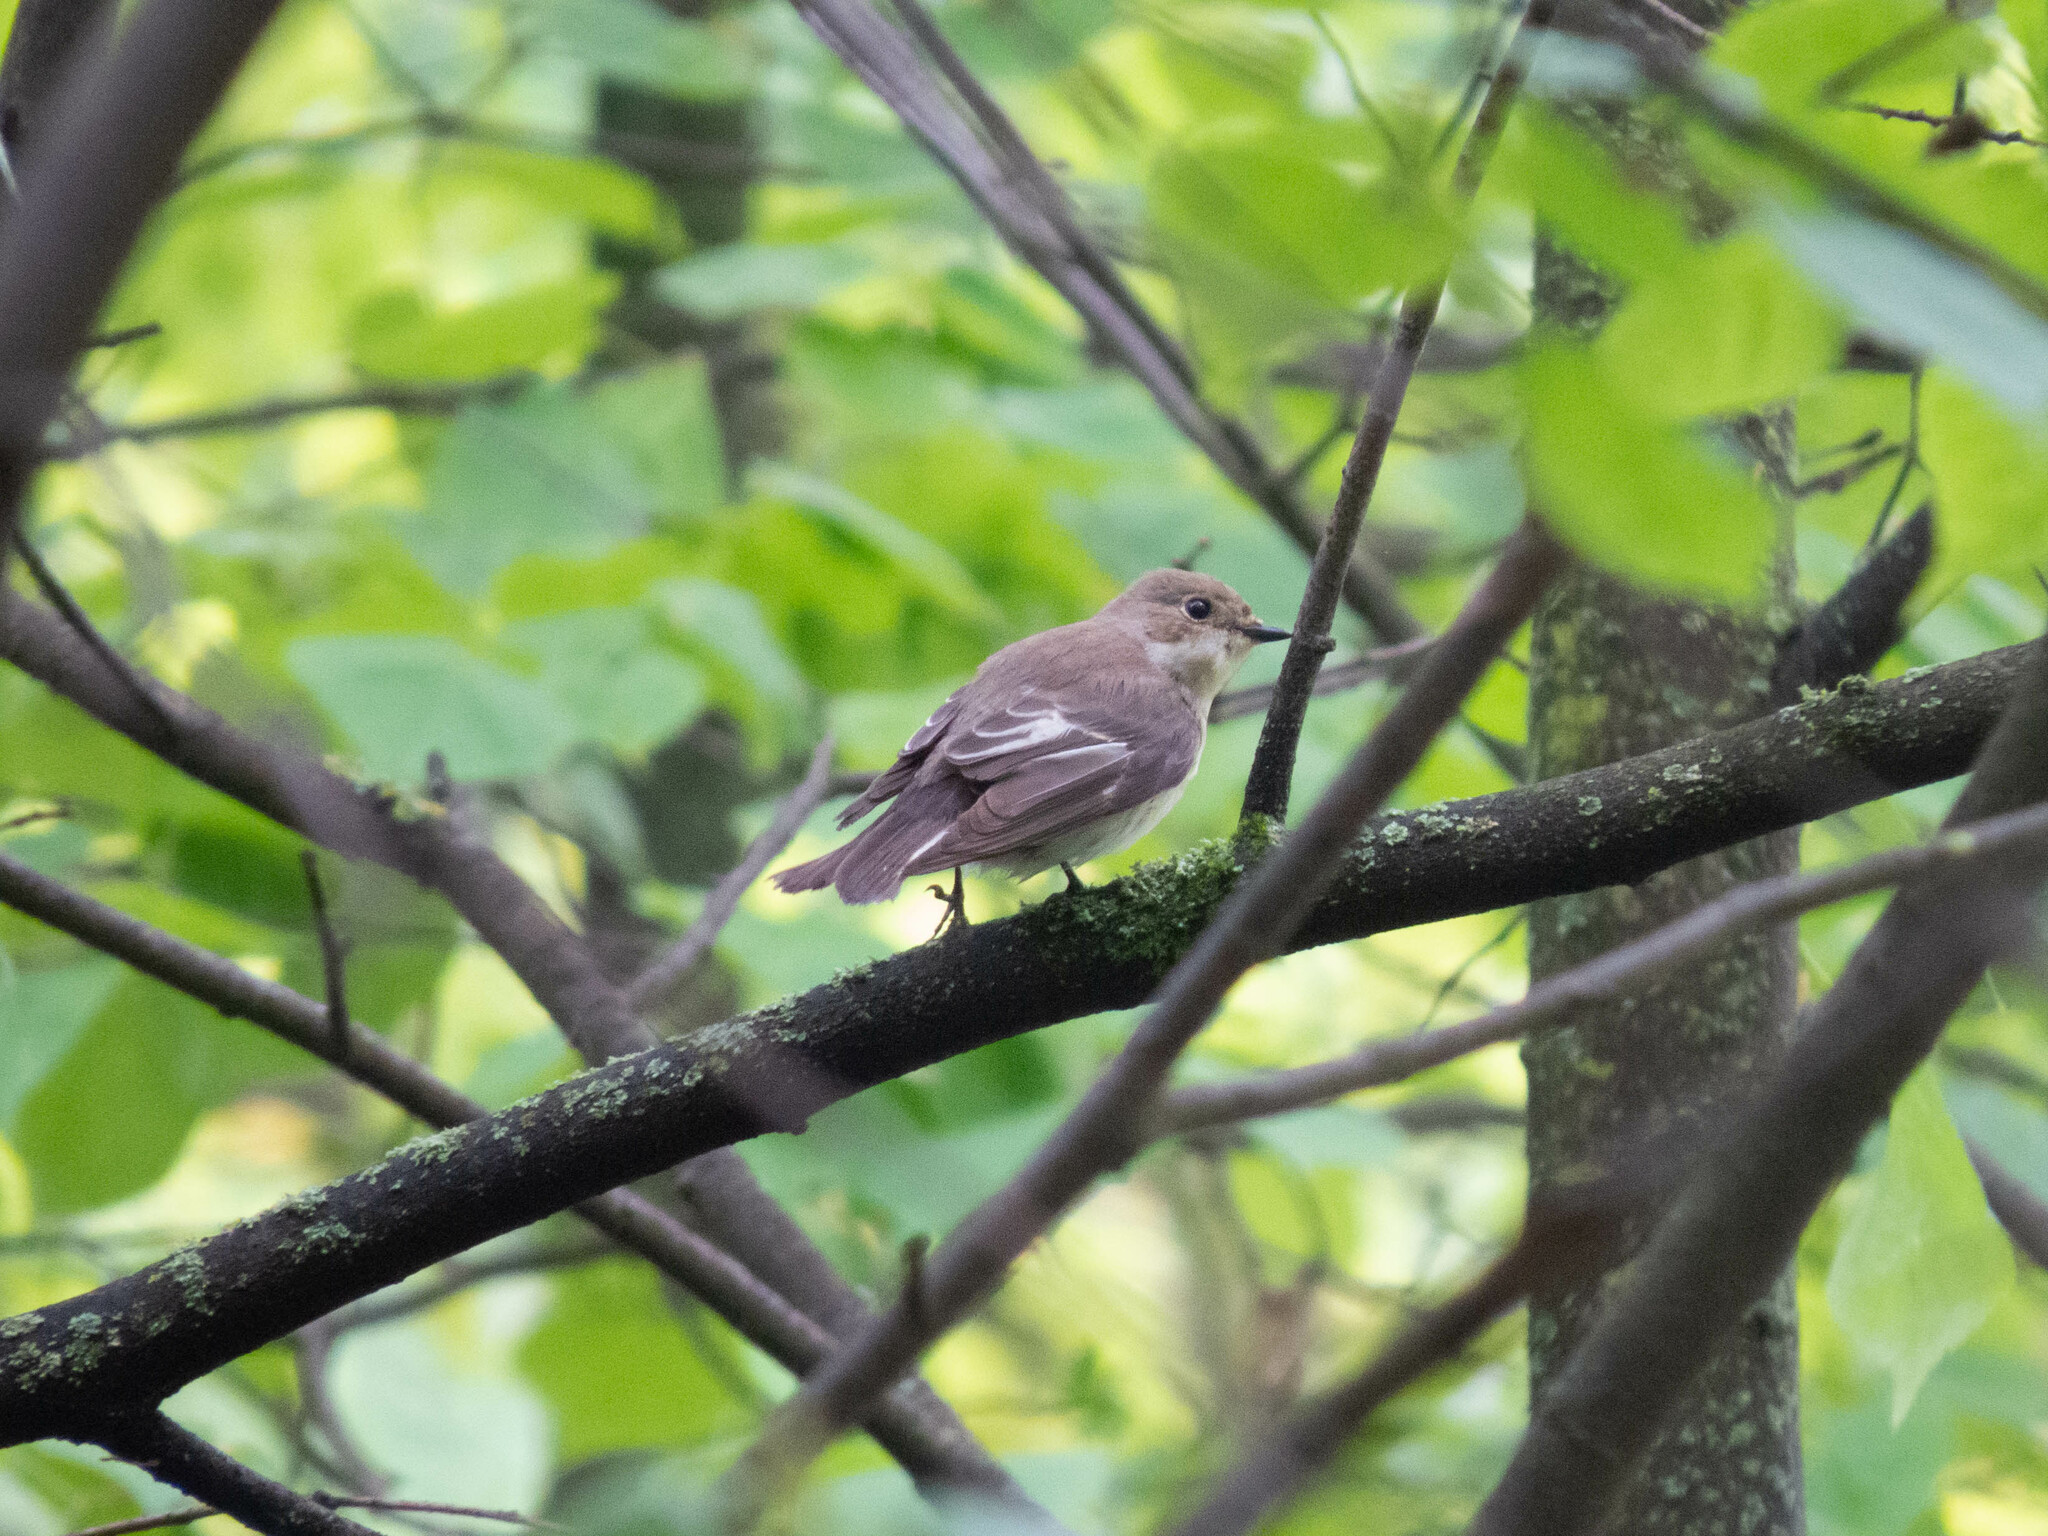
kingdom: Animalia
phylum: Chordata
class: Aves
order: Passeriformes
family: Muscicapidae
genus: Ficedula
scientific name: Ficedula hypoleuca
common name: European pied flycatcher
